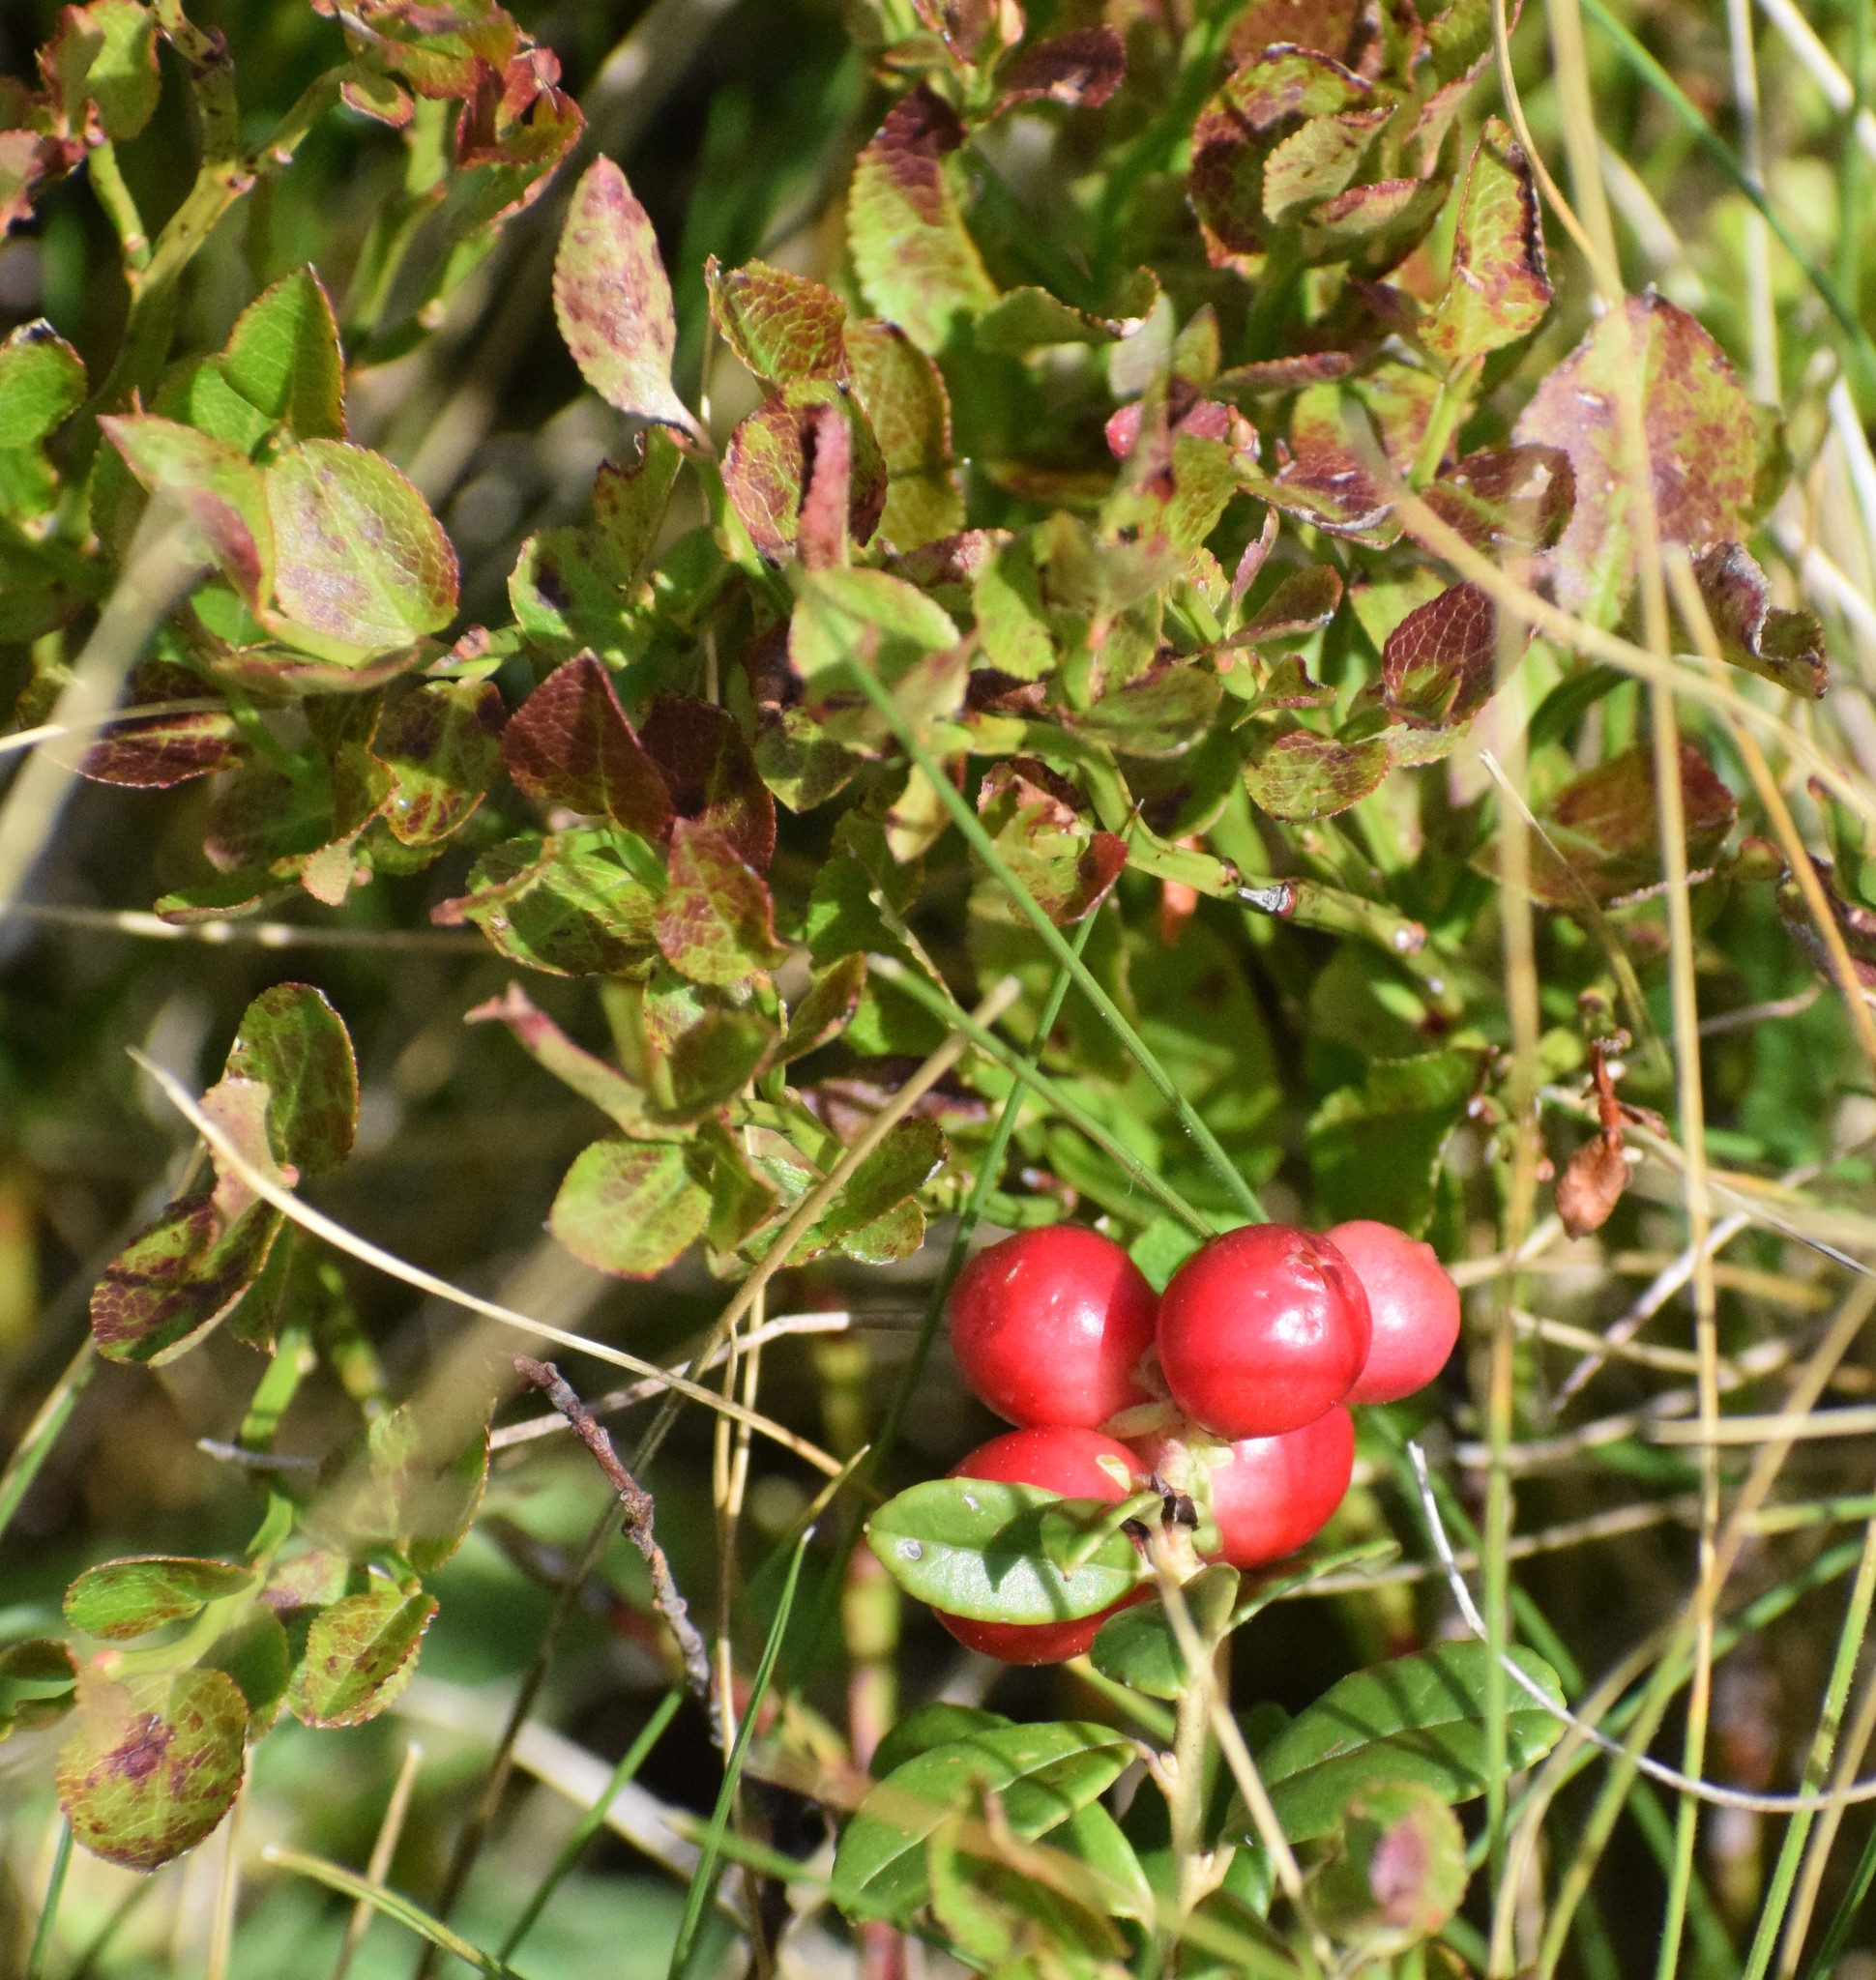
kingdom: Plantae
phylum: Tracheophyta
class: Magnoliopsida
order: Ericales
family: Ericaceae
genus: Vaccinium
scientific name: Vaccinium vitis-idaea
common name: Cowberry
